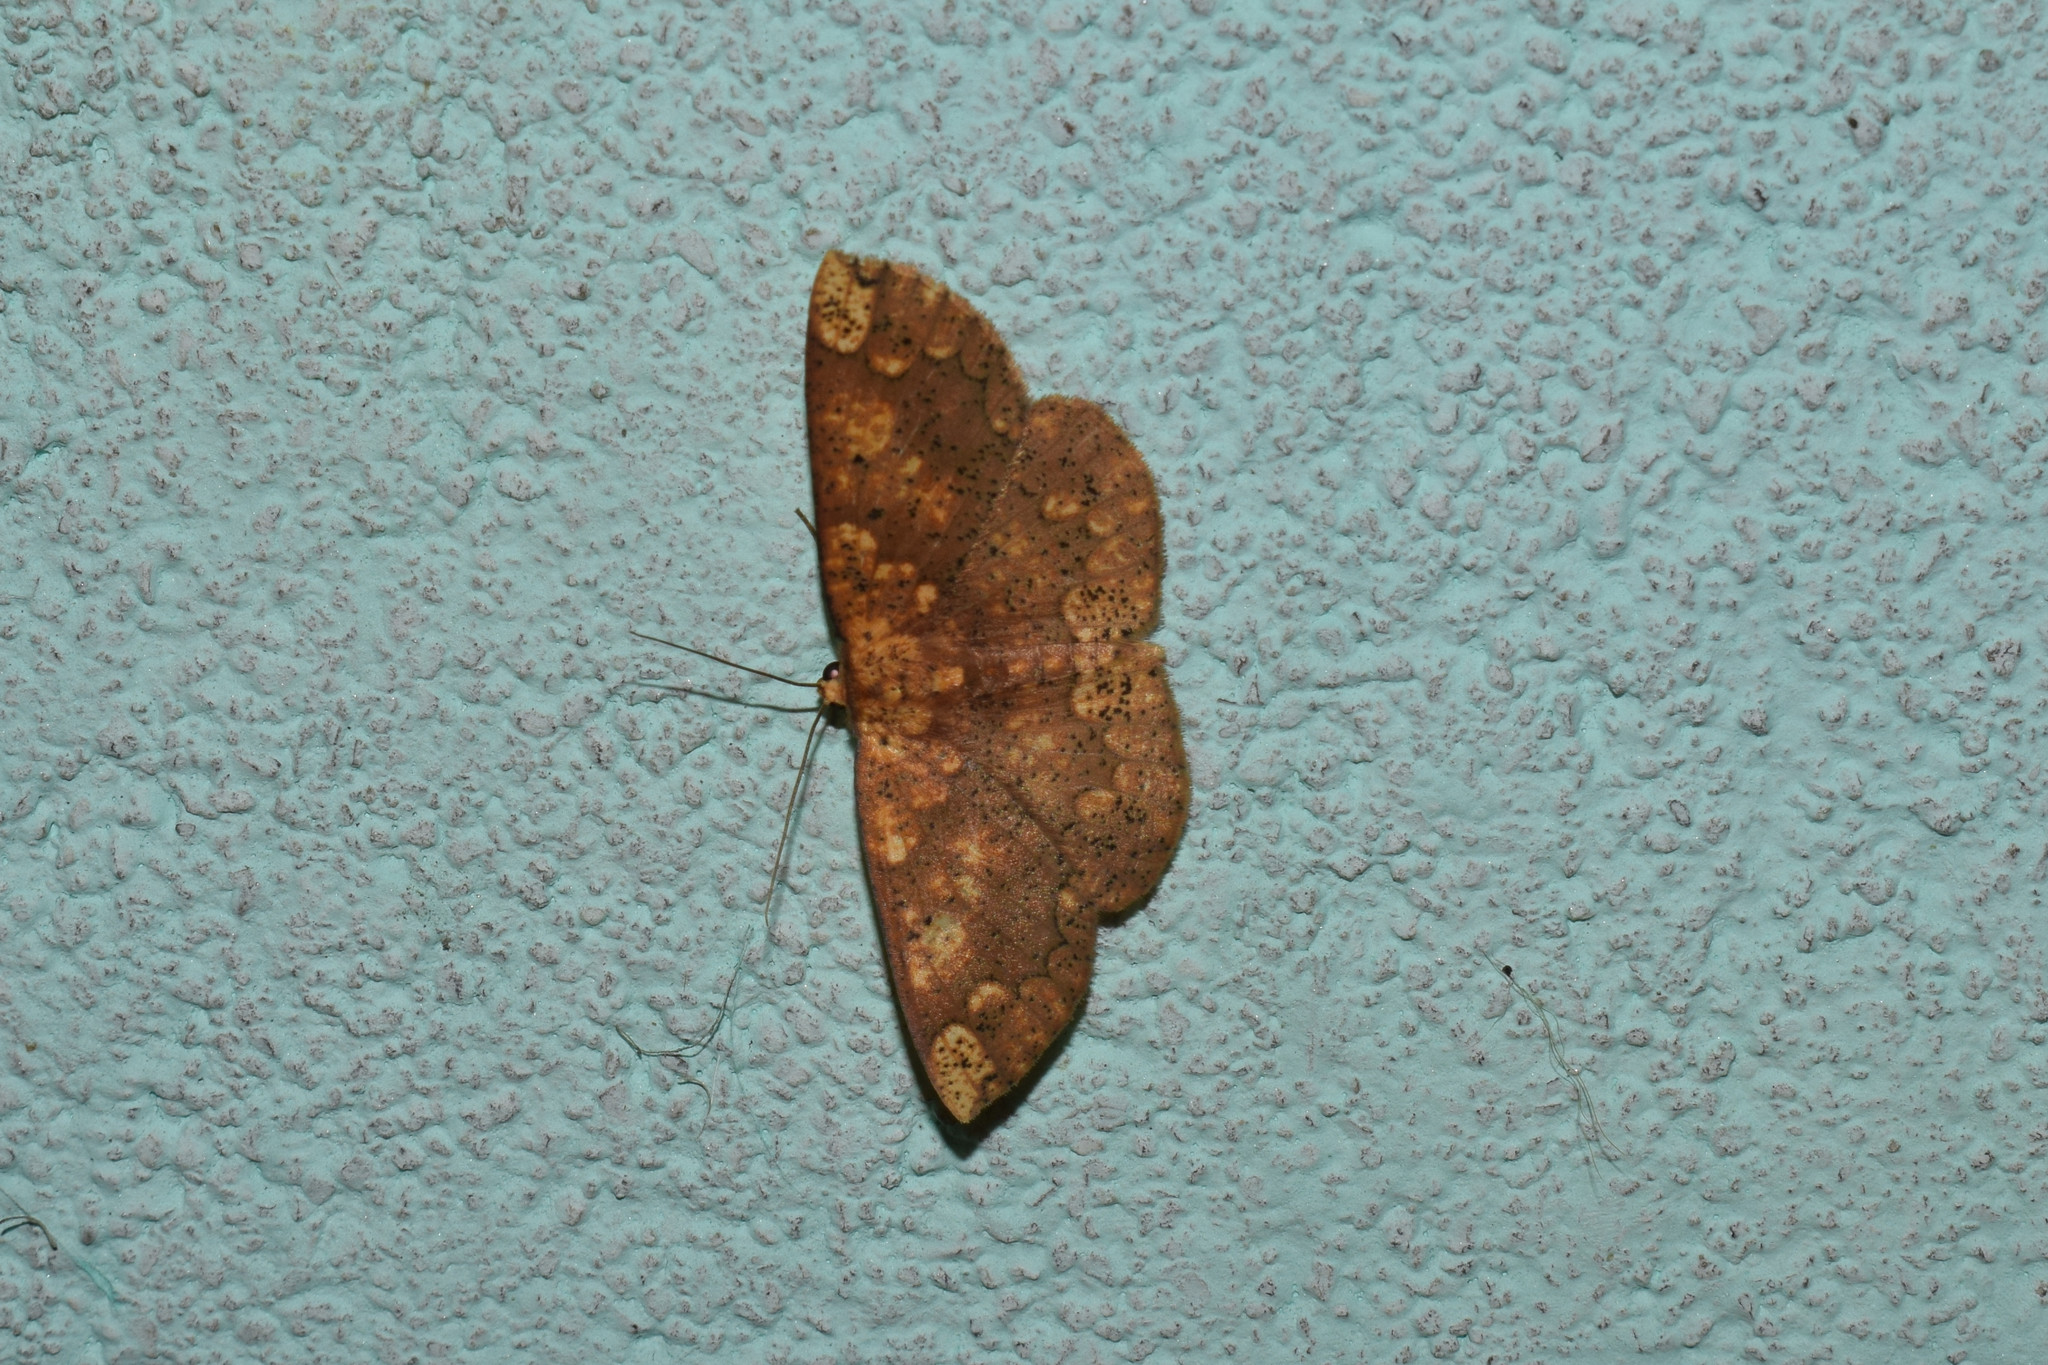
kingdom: Animalia
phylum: Arthropoda
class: Insecta
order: Lepidoptera
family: Geometridae
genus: Heterostegania
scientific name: Heterostegania lunulosa
